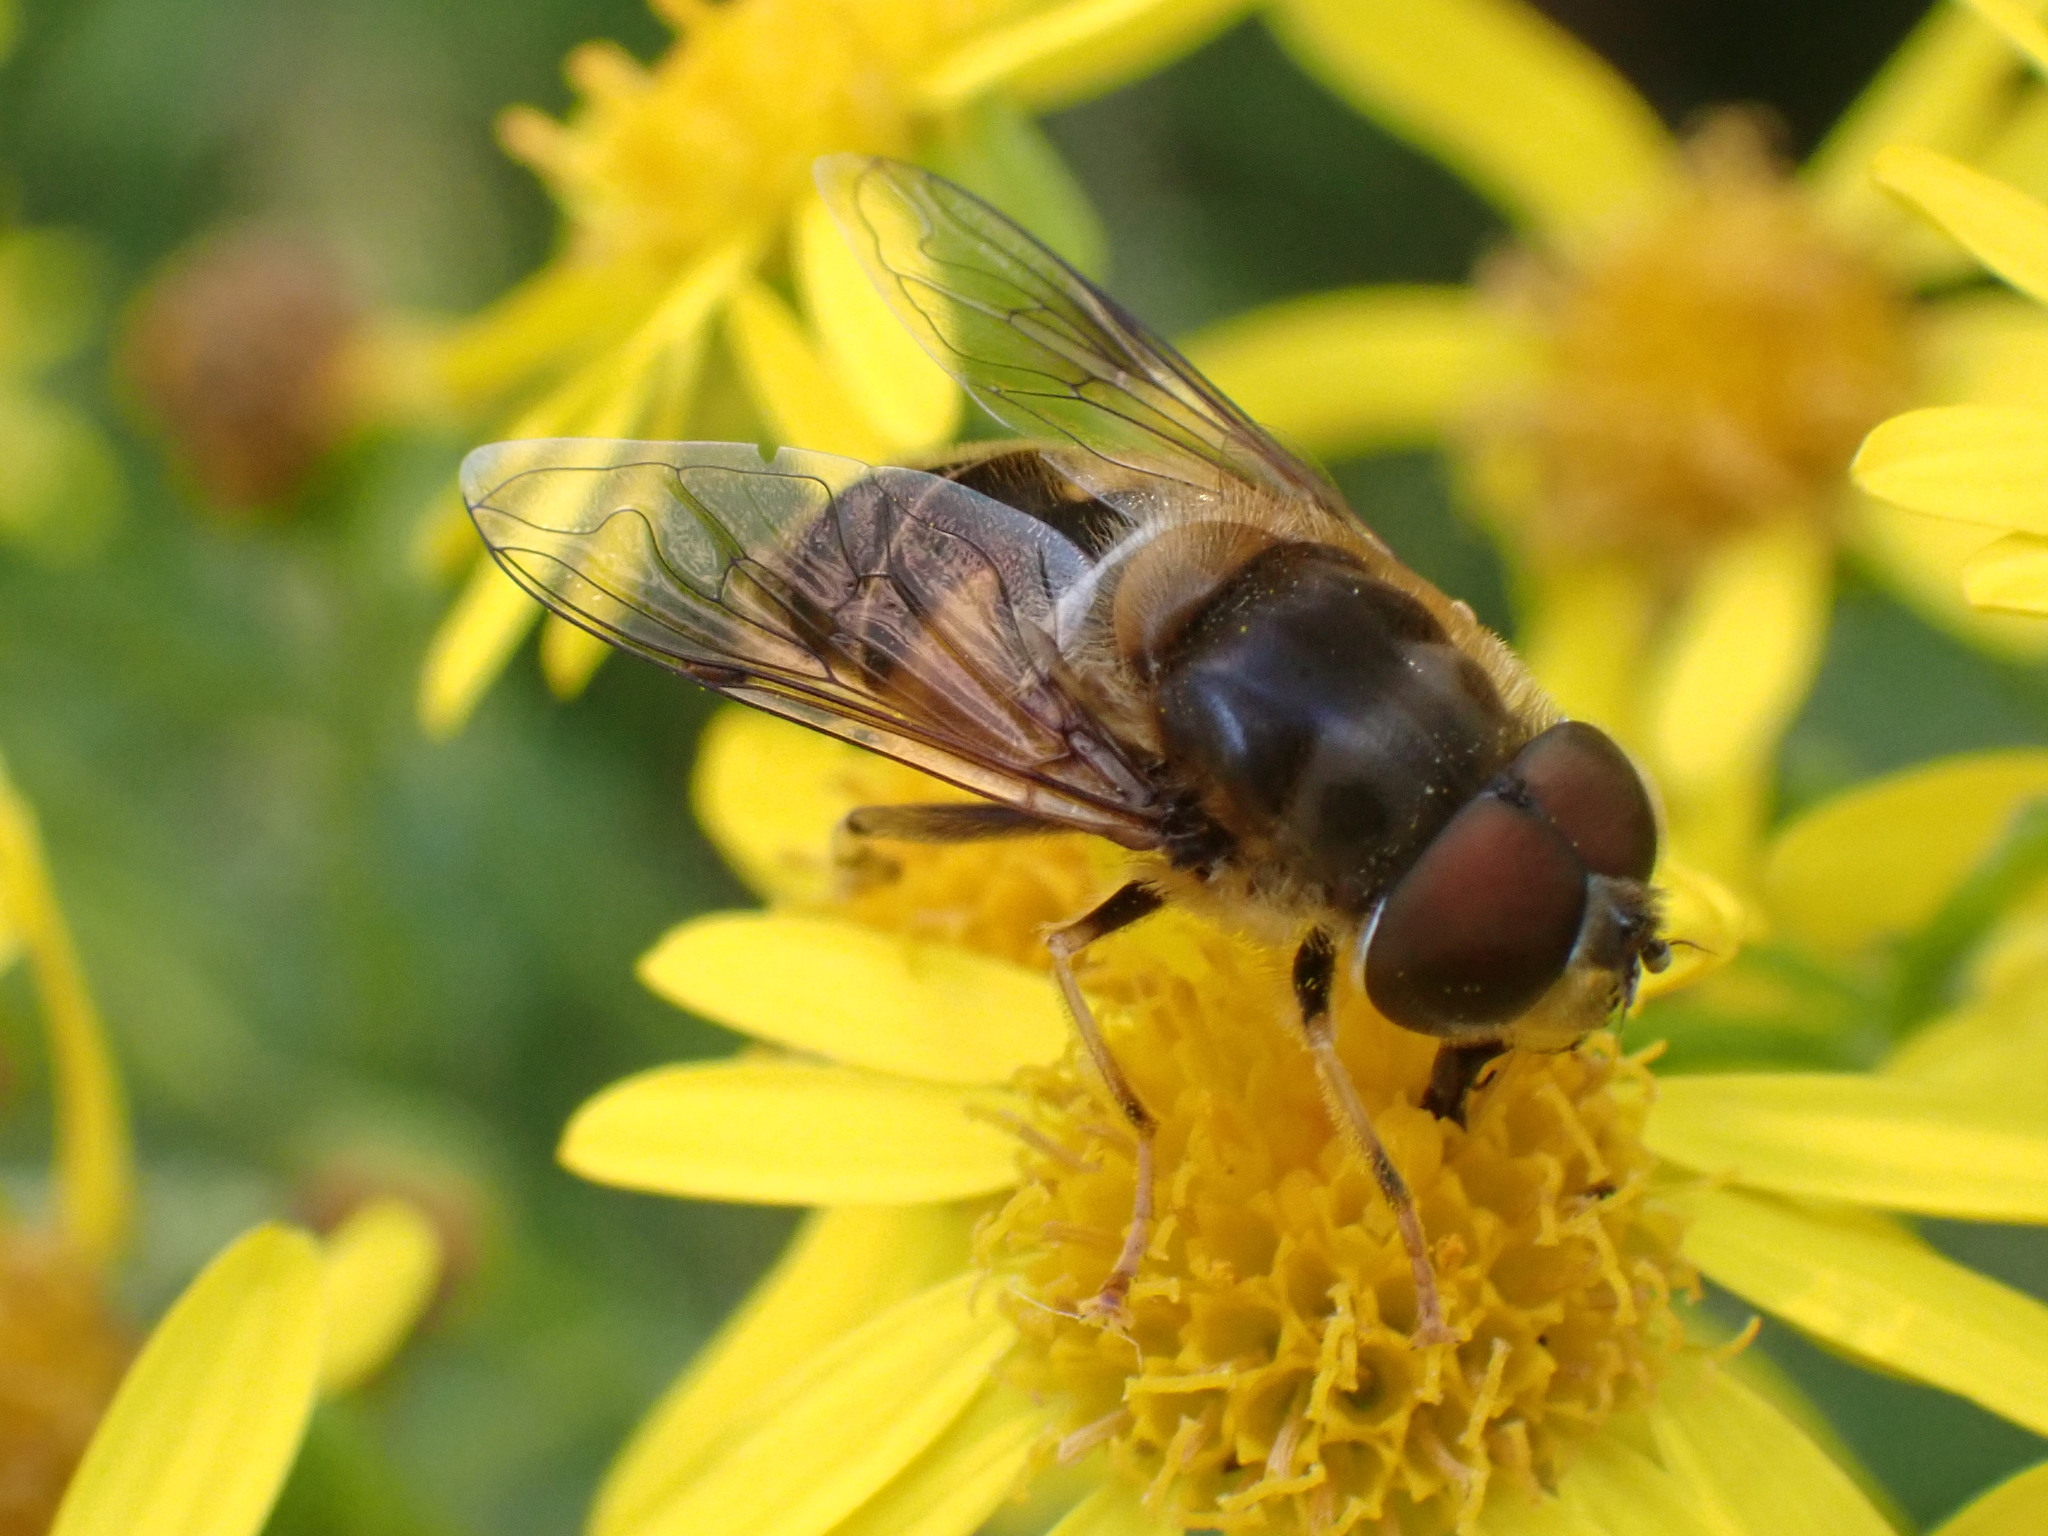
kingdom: Animalia
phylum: Arthropoda
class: Insecta
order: Diptera
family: Syrphidae
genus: Eristalis
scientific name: Eristalis pertinax
